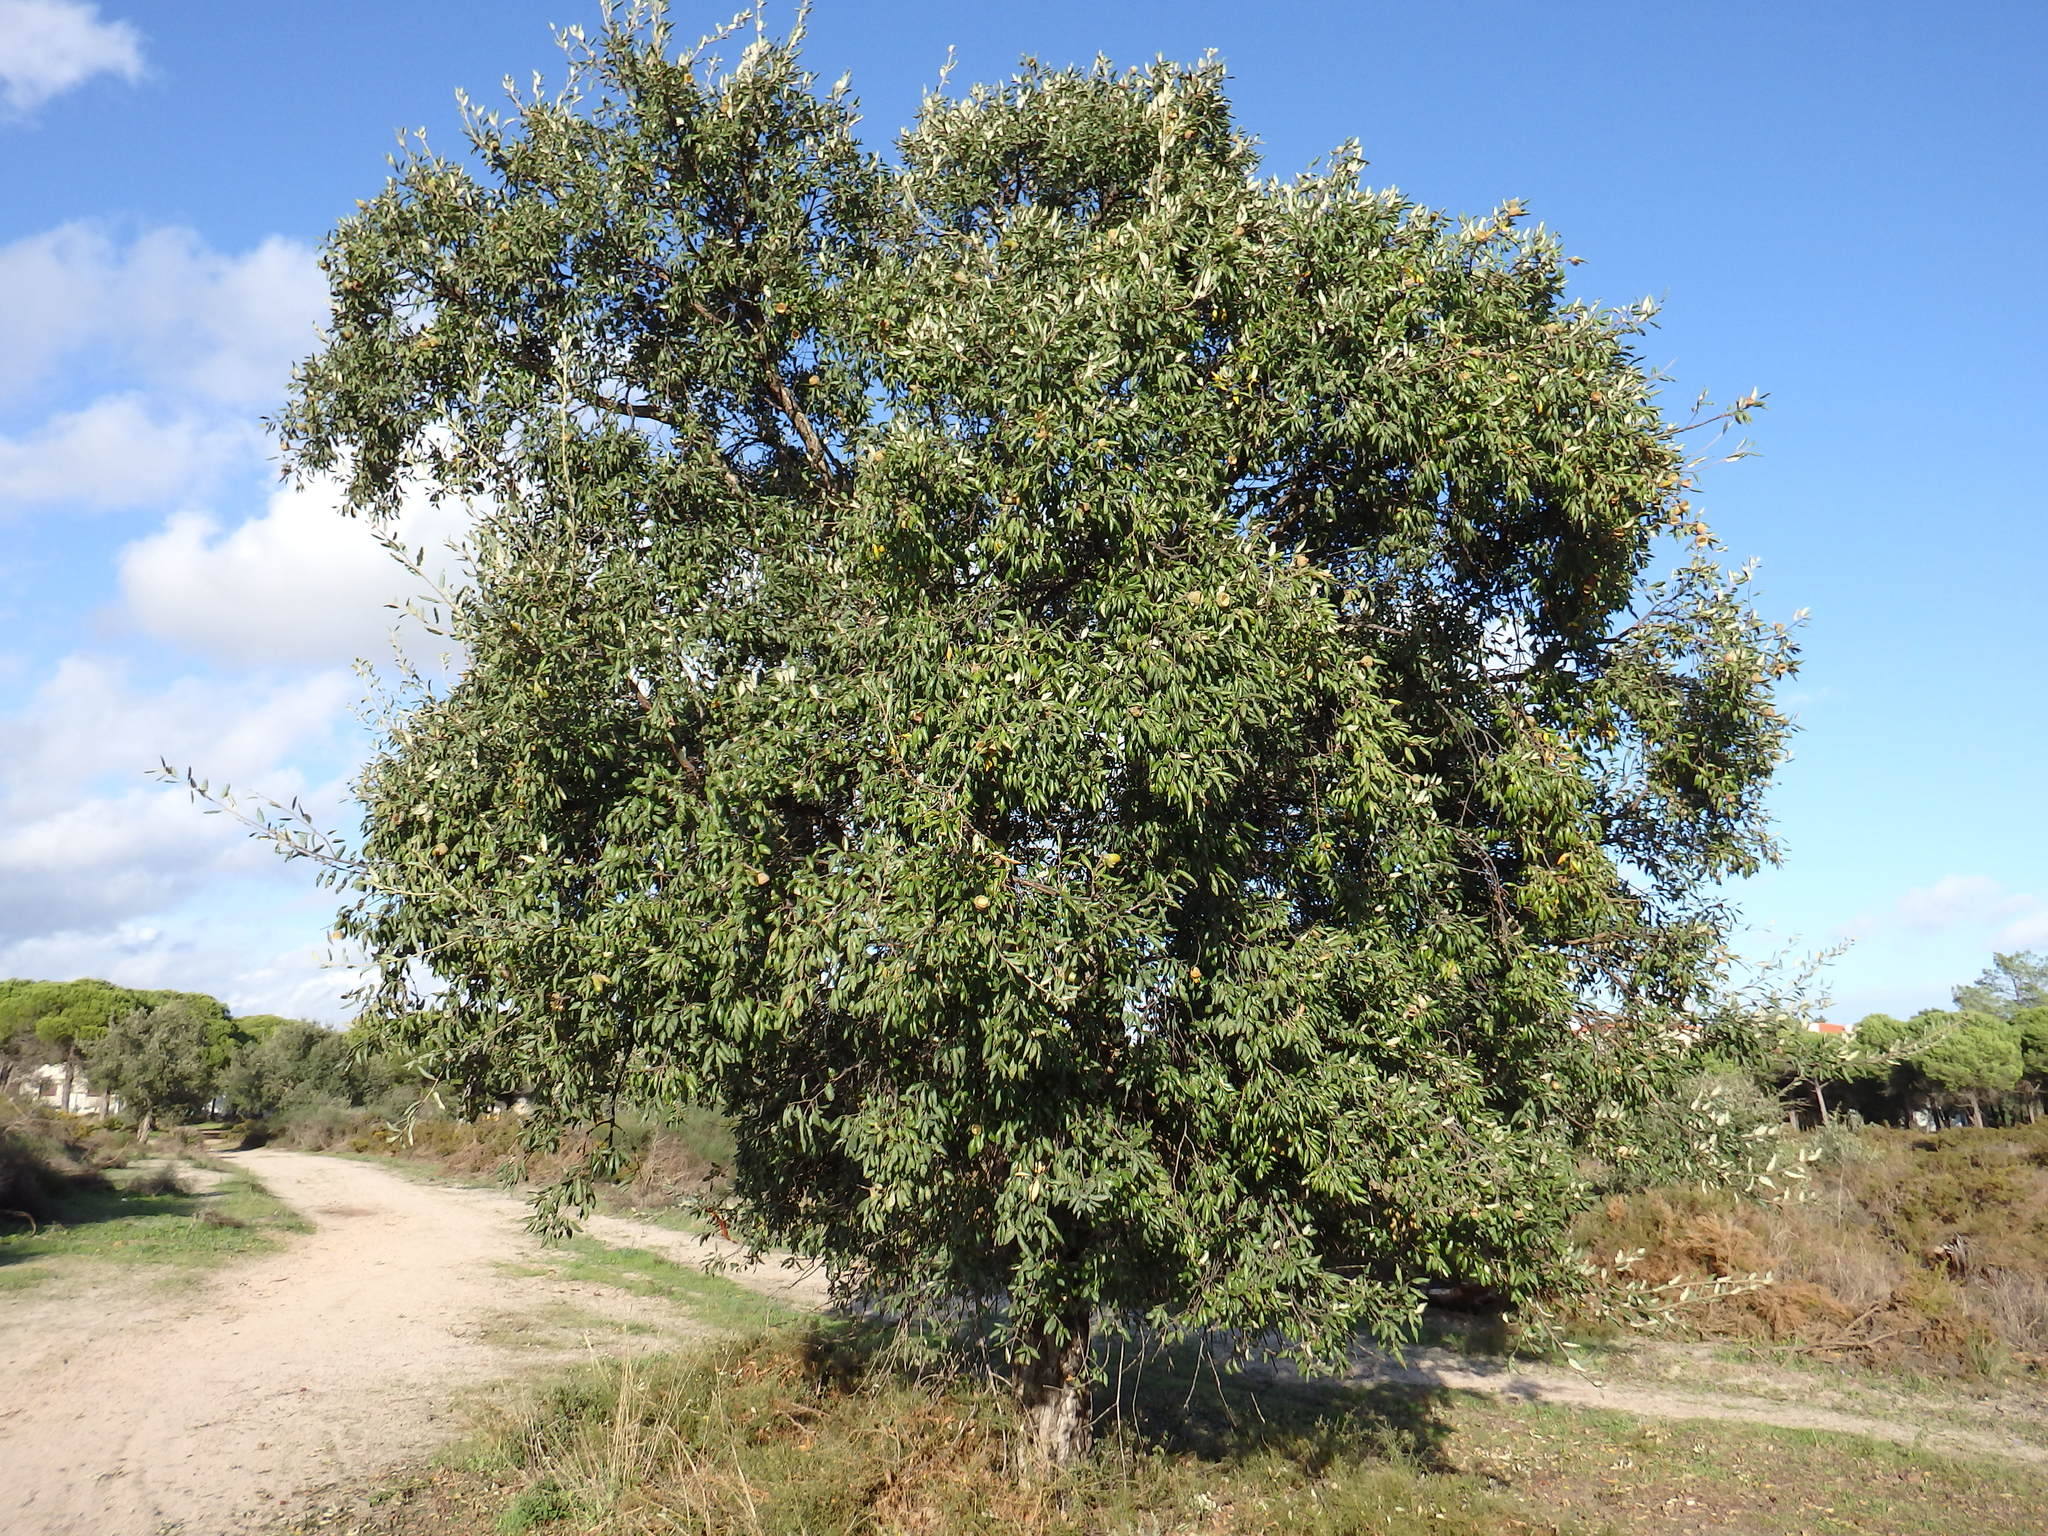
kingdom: Plantae
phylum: Tracheophyta
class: Magnoliopsida
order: Fagales
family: Fagaceae
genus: Quercus
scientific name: Quercus suber
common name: Cork oak
